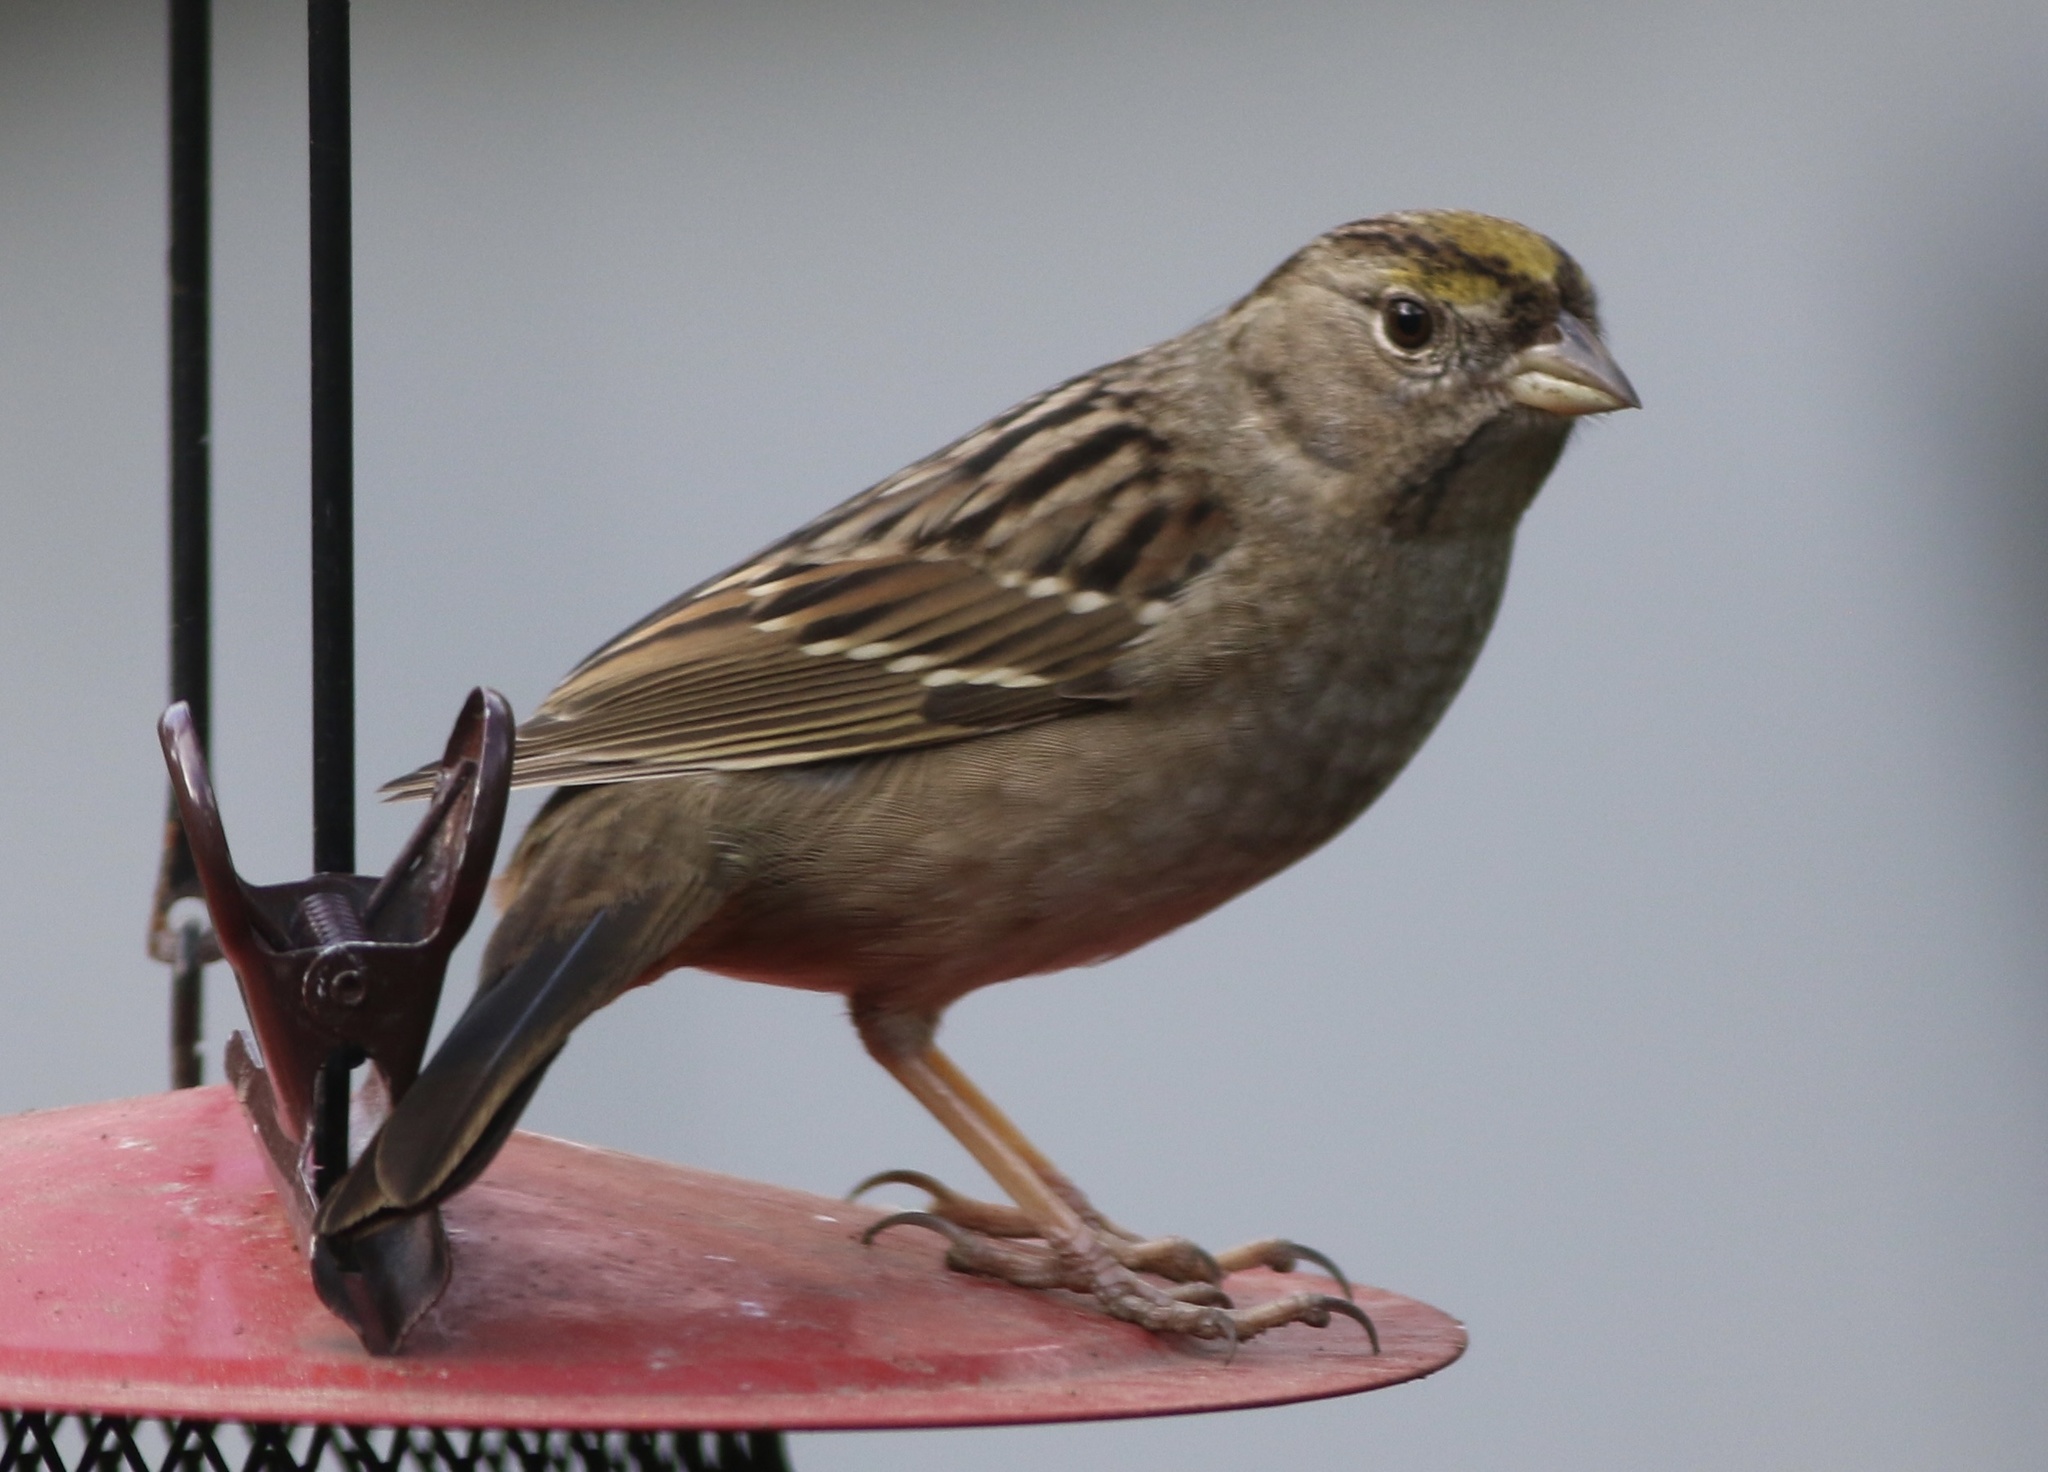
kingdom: Animalia
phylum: Chordata
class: Aves
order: Passeriformes
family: Passerellidae
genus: Zonotrichia
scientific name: Zonotrichia atricapilla
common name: Golden-crowned sparrow
